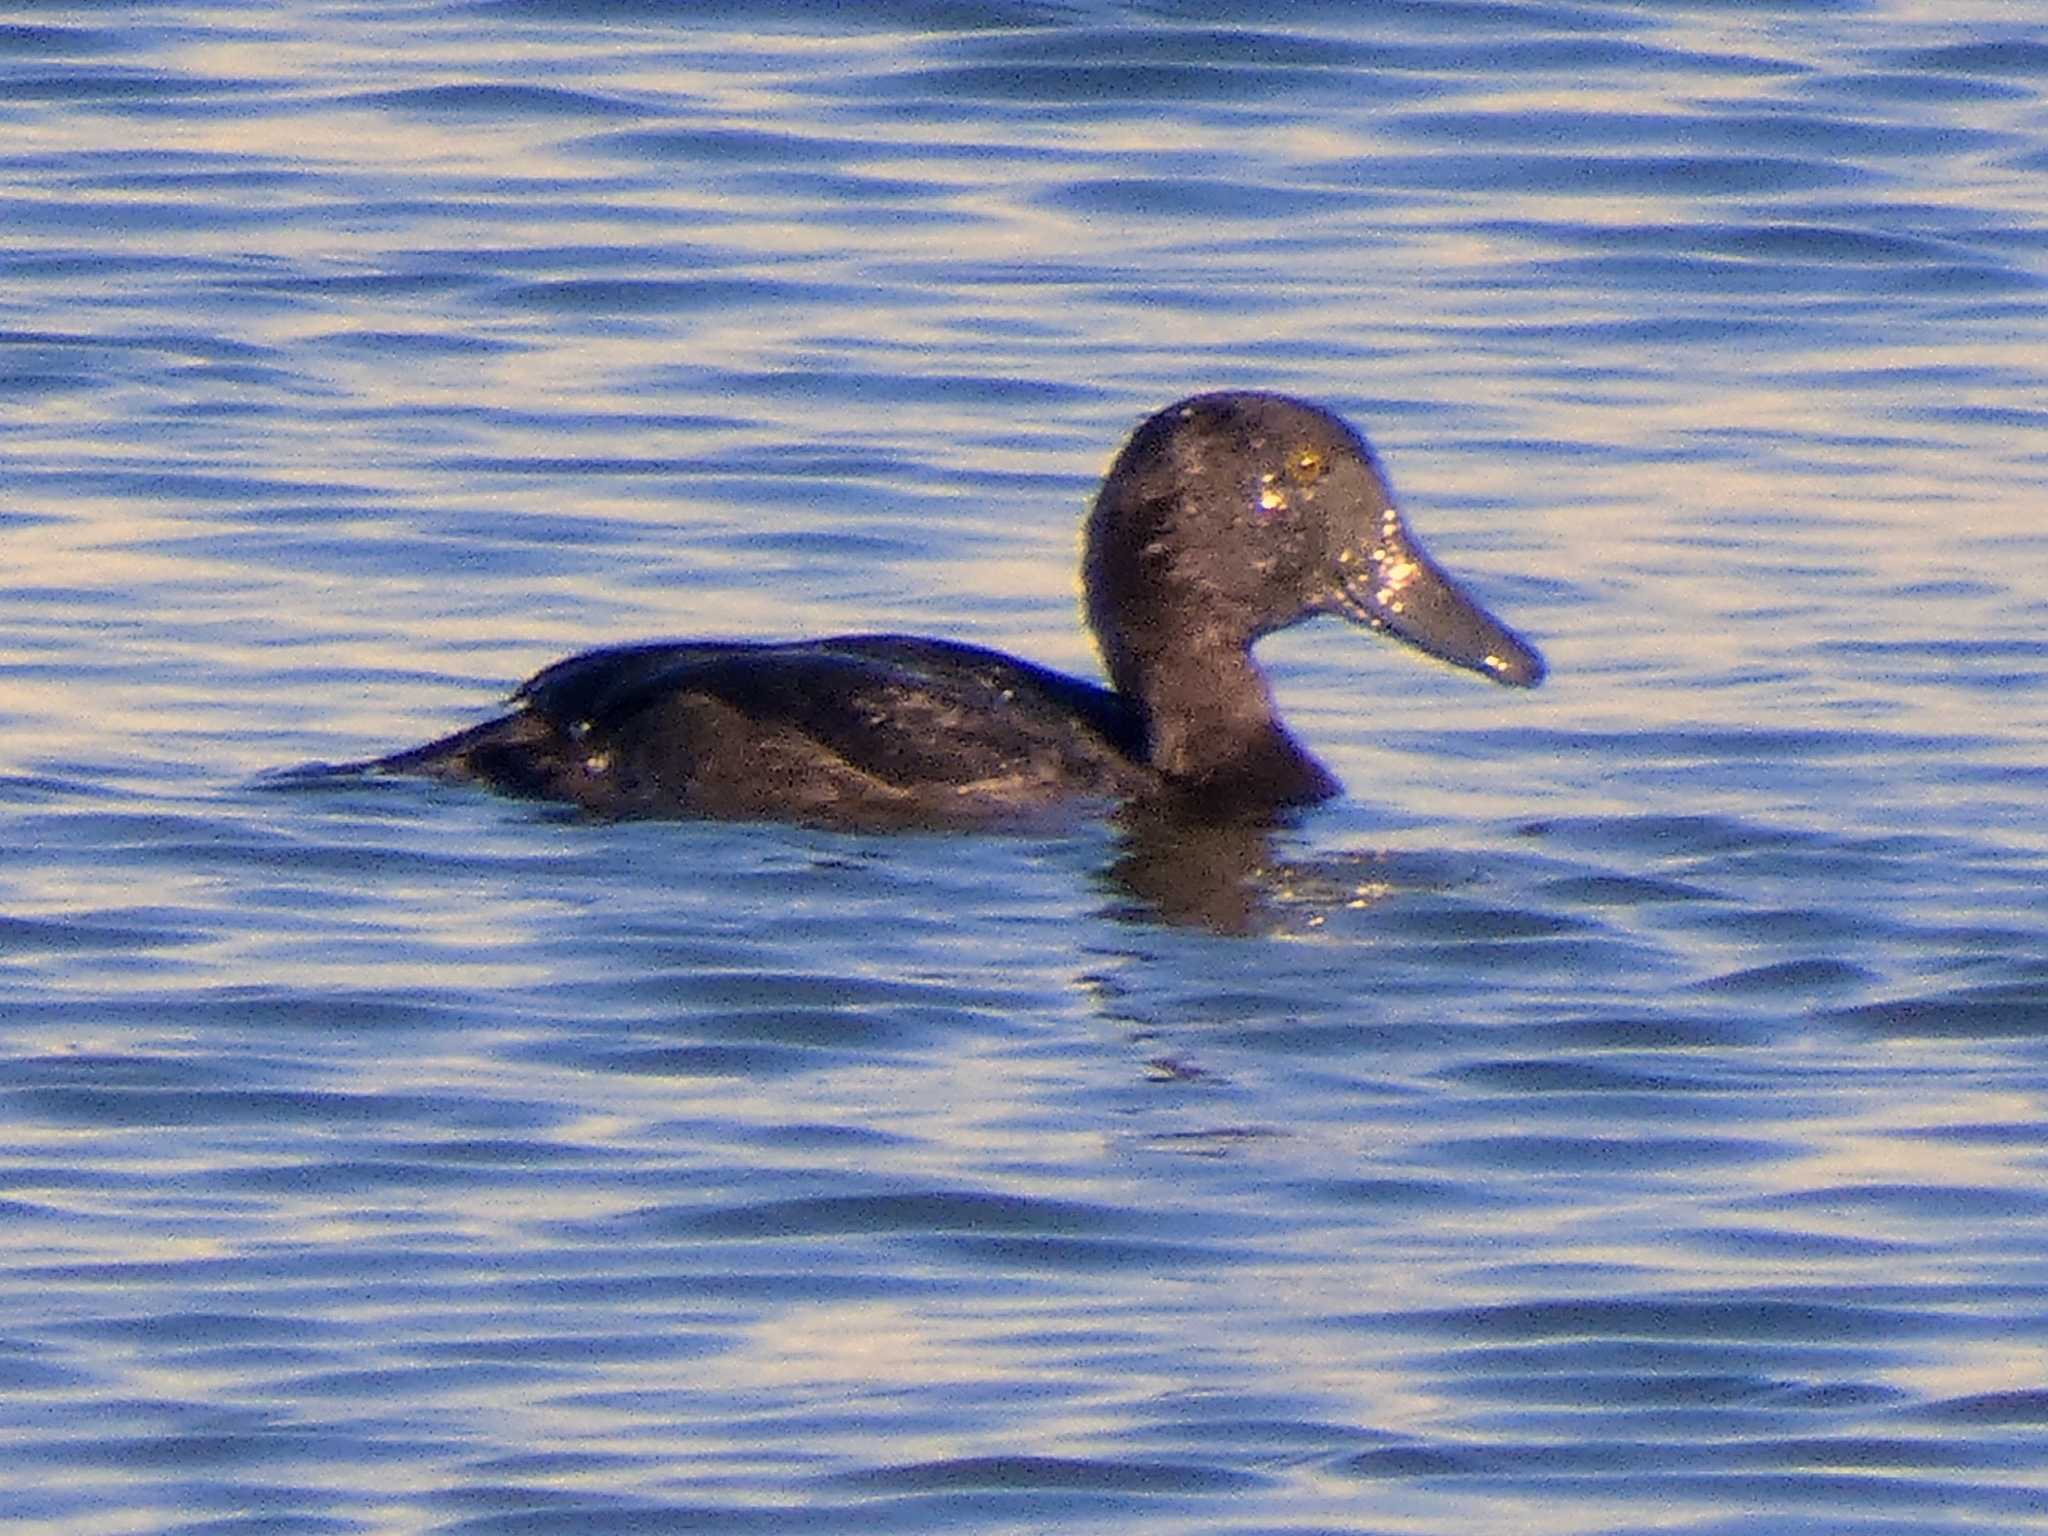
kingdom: Animalia
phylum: Chordata
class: Aves
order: Anseriformes
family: Anatidae
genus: Aythya
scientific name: Aythya fuligula
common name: Tufted duck
